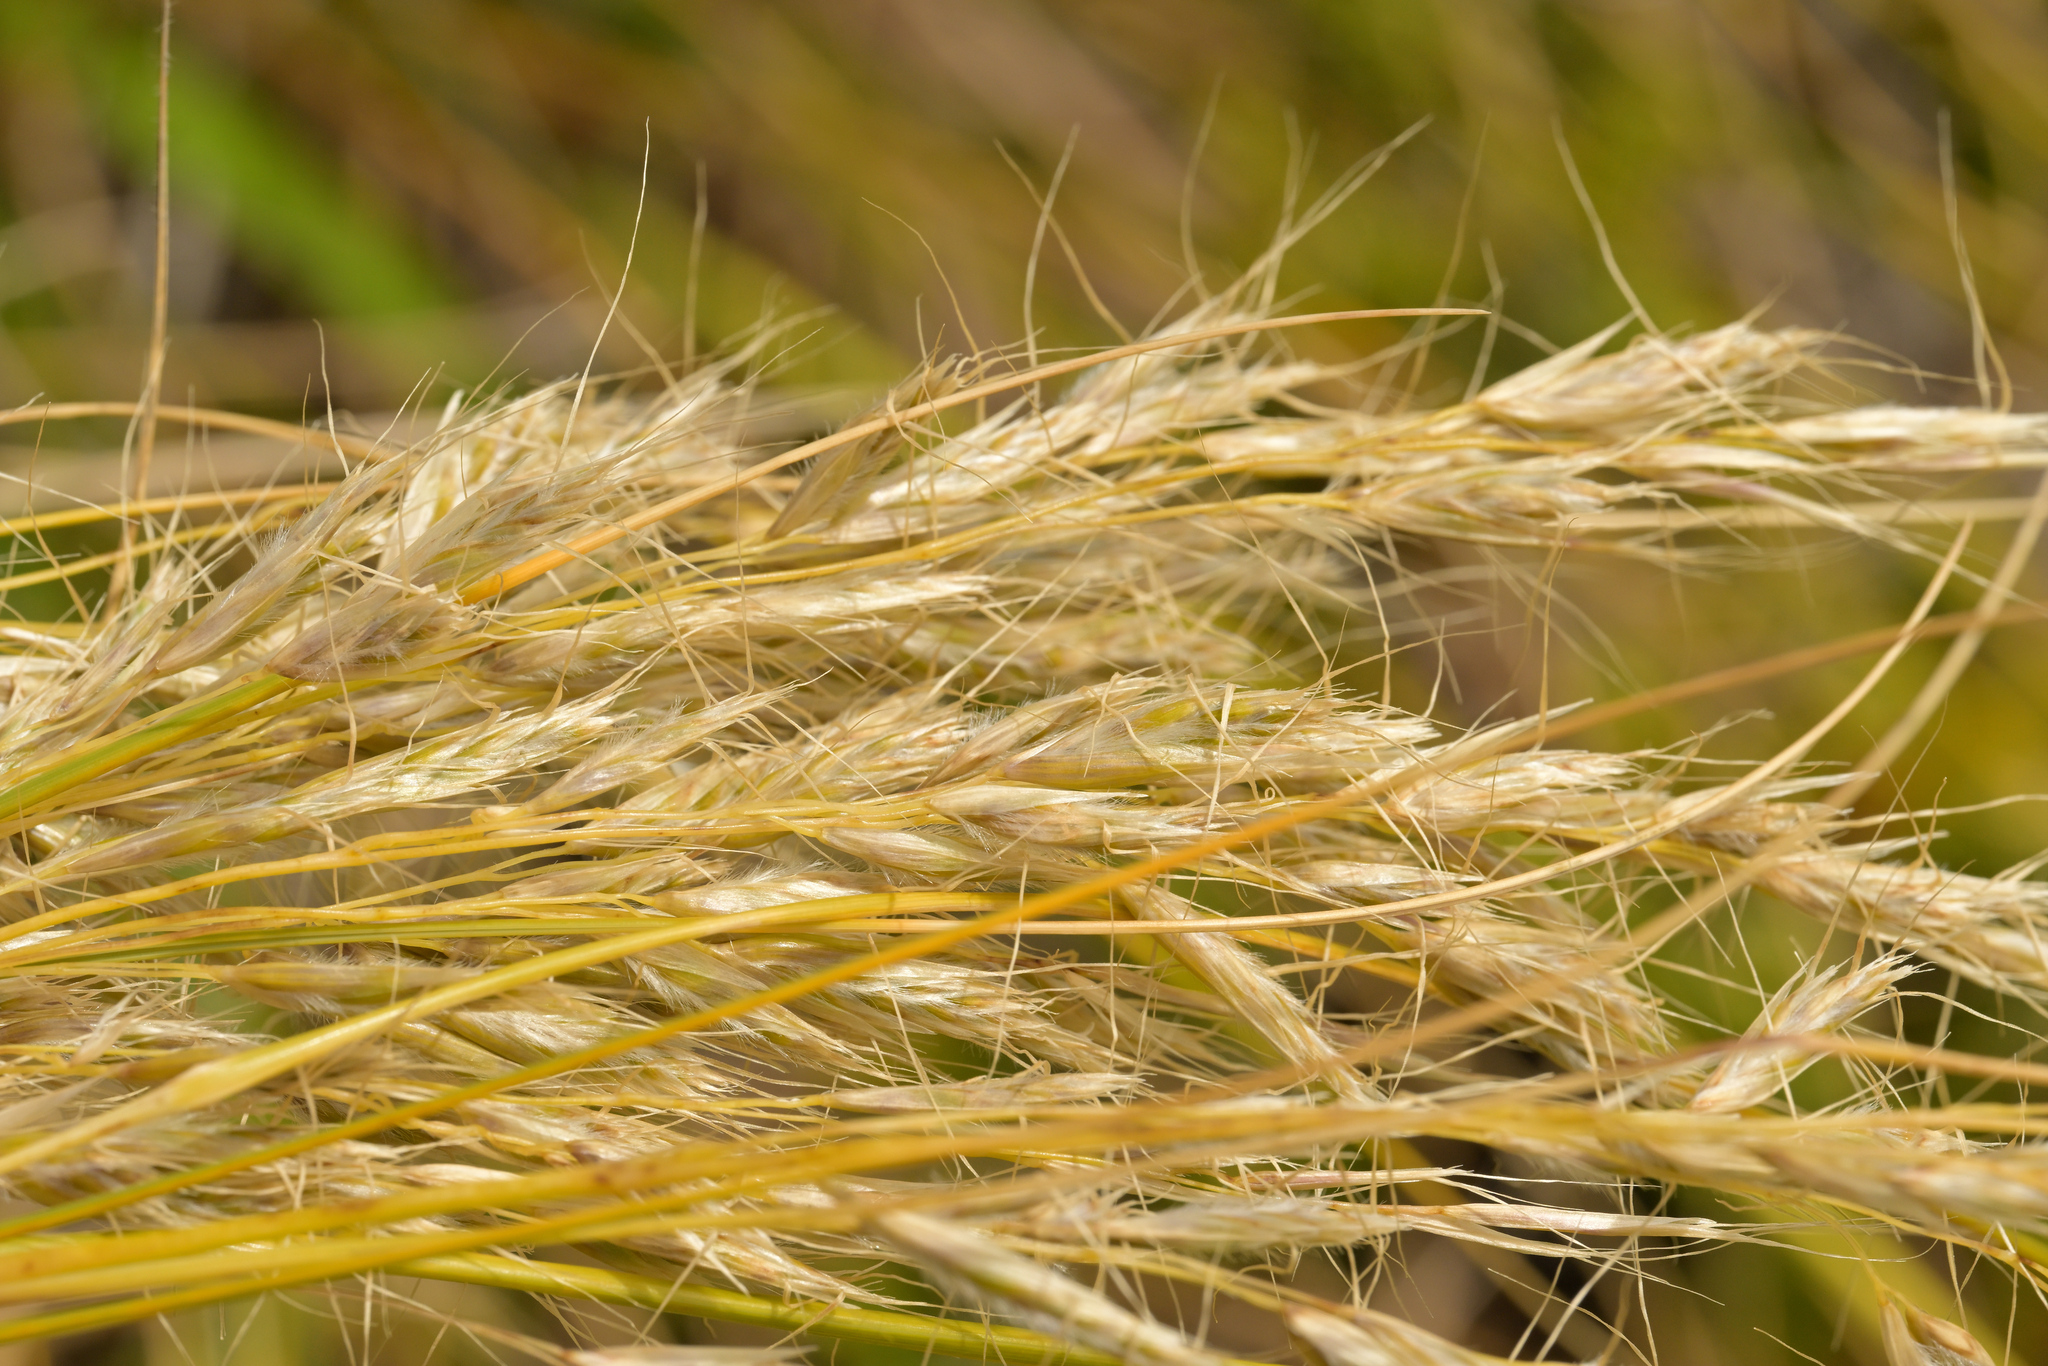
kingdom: Plantae
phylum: Tracheophyta
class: Liliopsida
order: Poales
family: Poaceae
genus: Chionochloa
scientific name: Chionochloa antarctica
